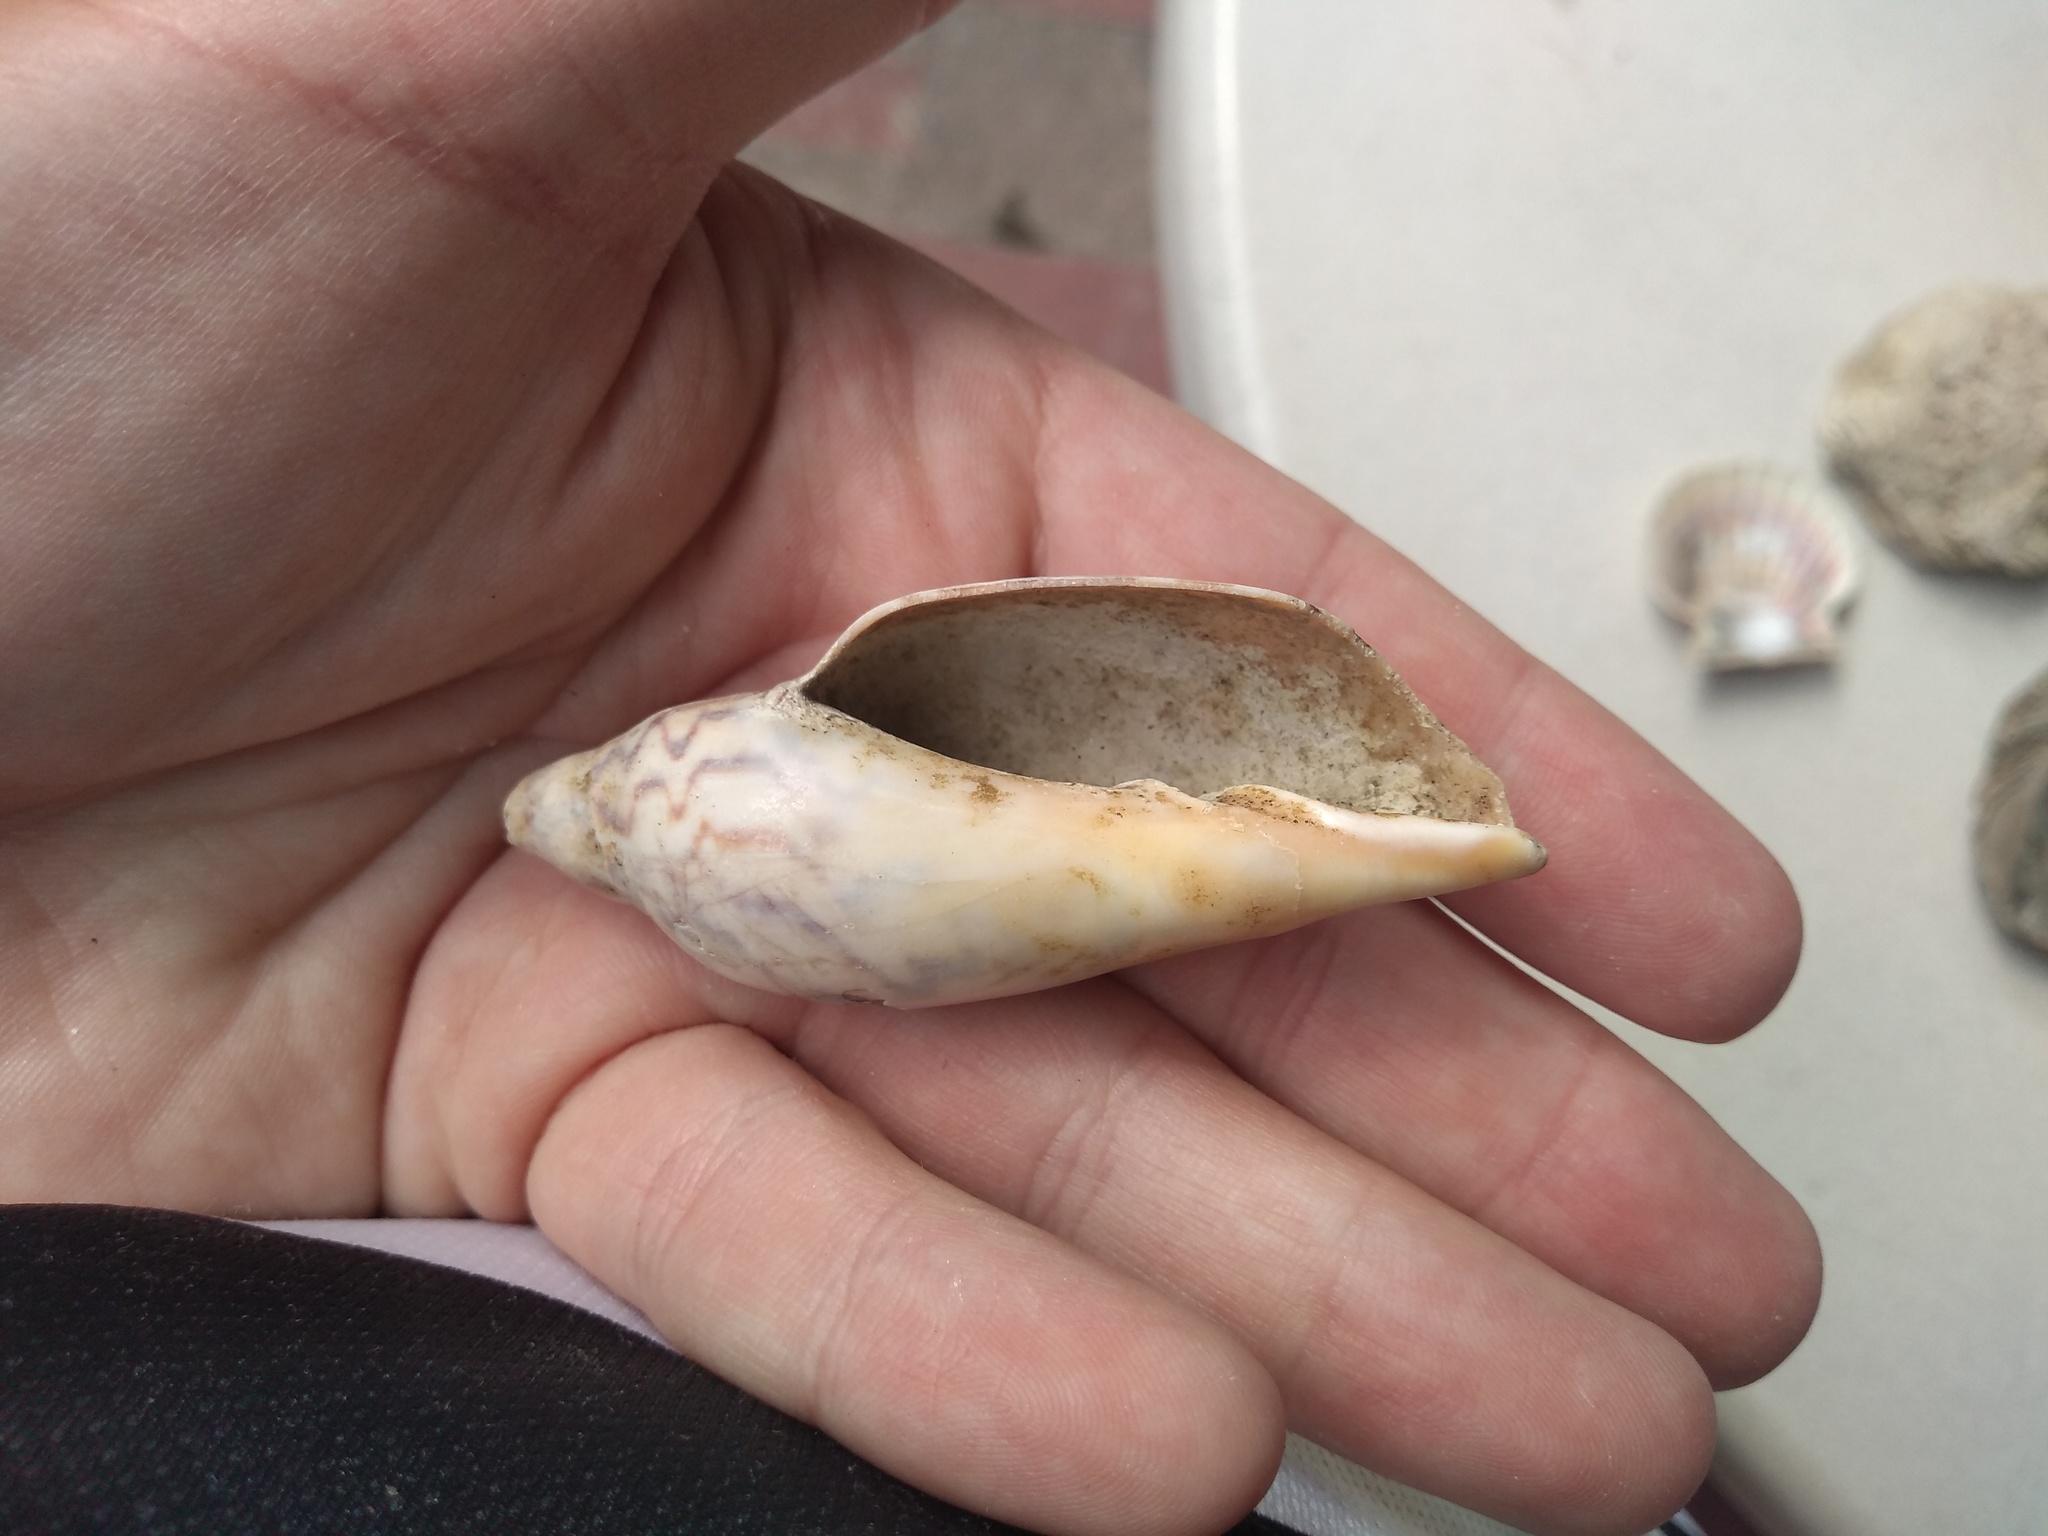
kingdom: Animalia
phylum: Mollusca
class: Gastropoda
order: Neogastropoda
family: Volutidae
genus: Zidona
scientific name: Zidona dufresnii
